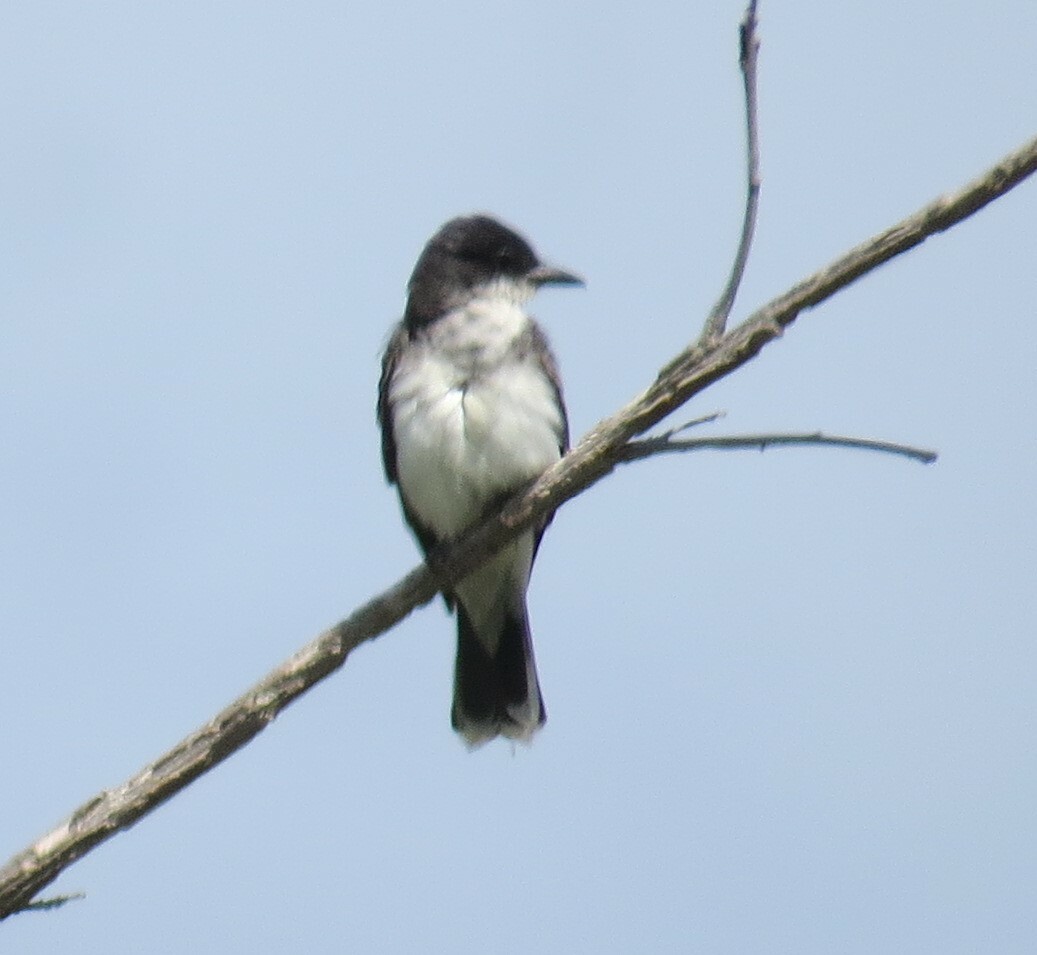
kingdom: Animalia
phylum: Chordata
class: Aves
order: Passeriformes
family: Tyrannidae
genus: Tyrannus
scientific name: Tyrannus tyrannus
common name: Eastern kingbird
